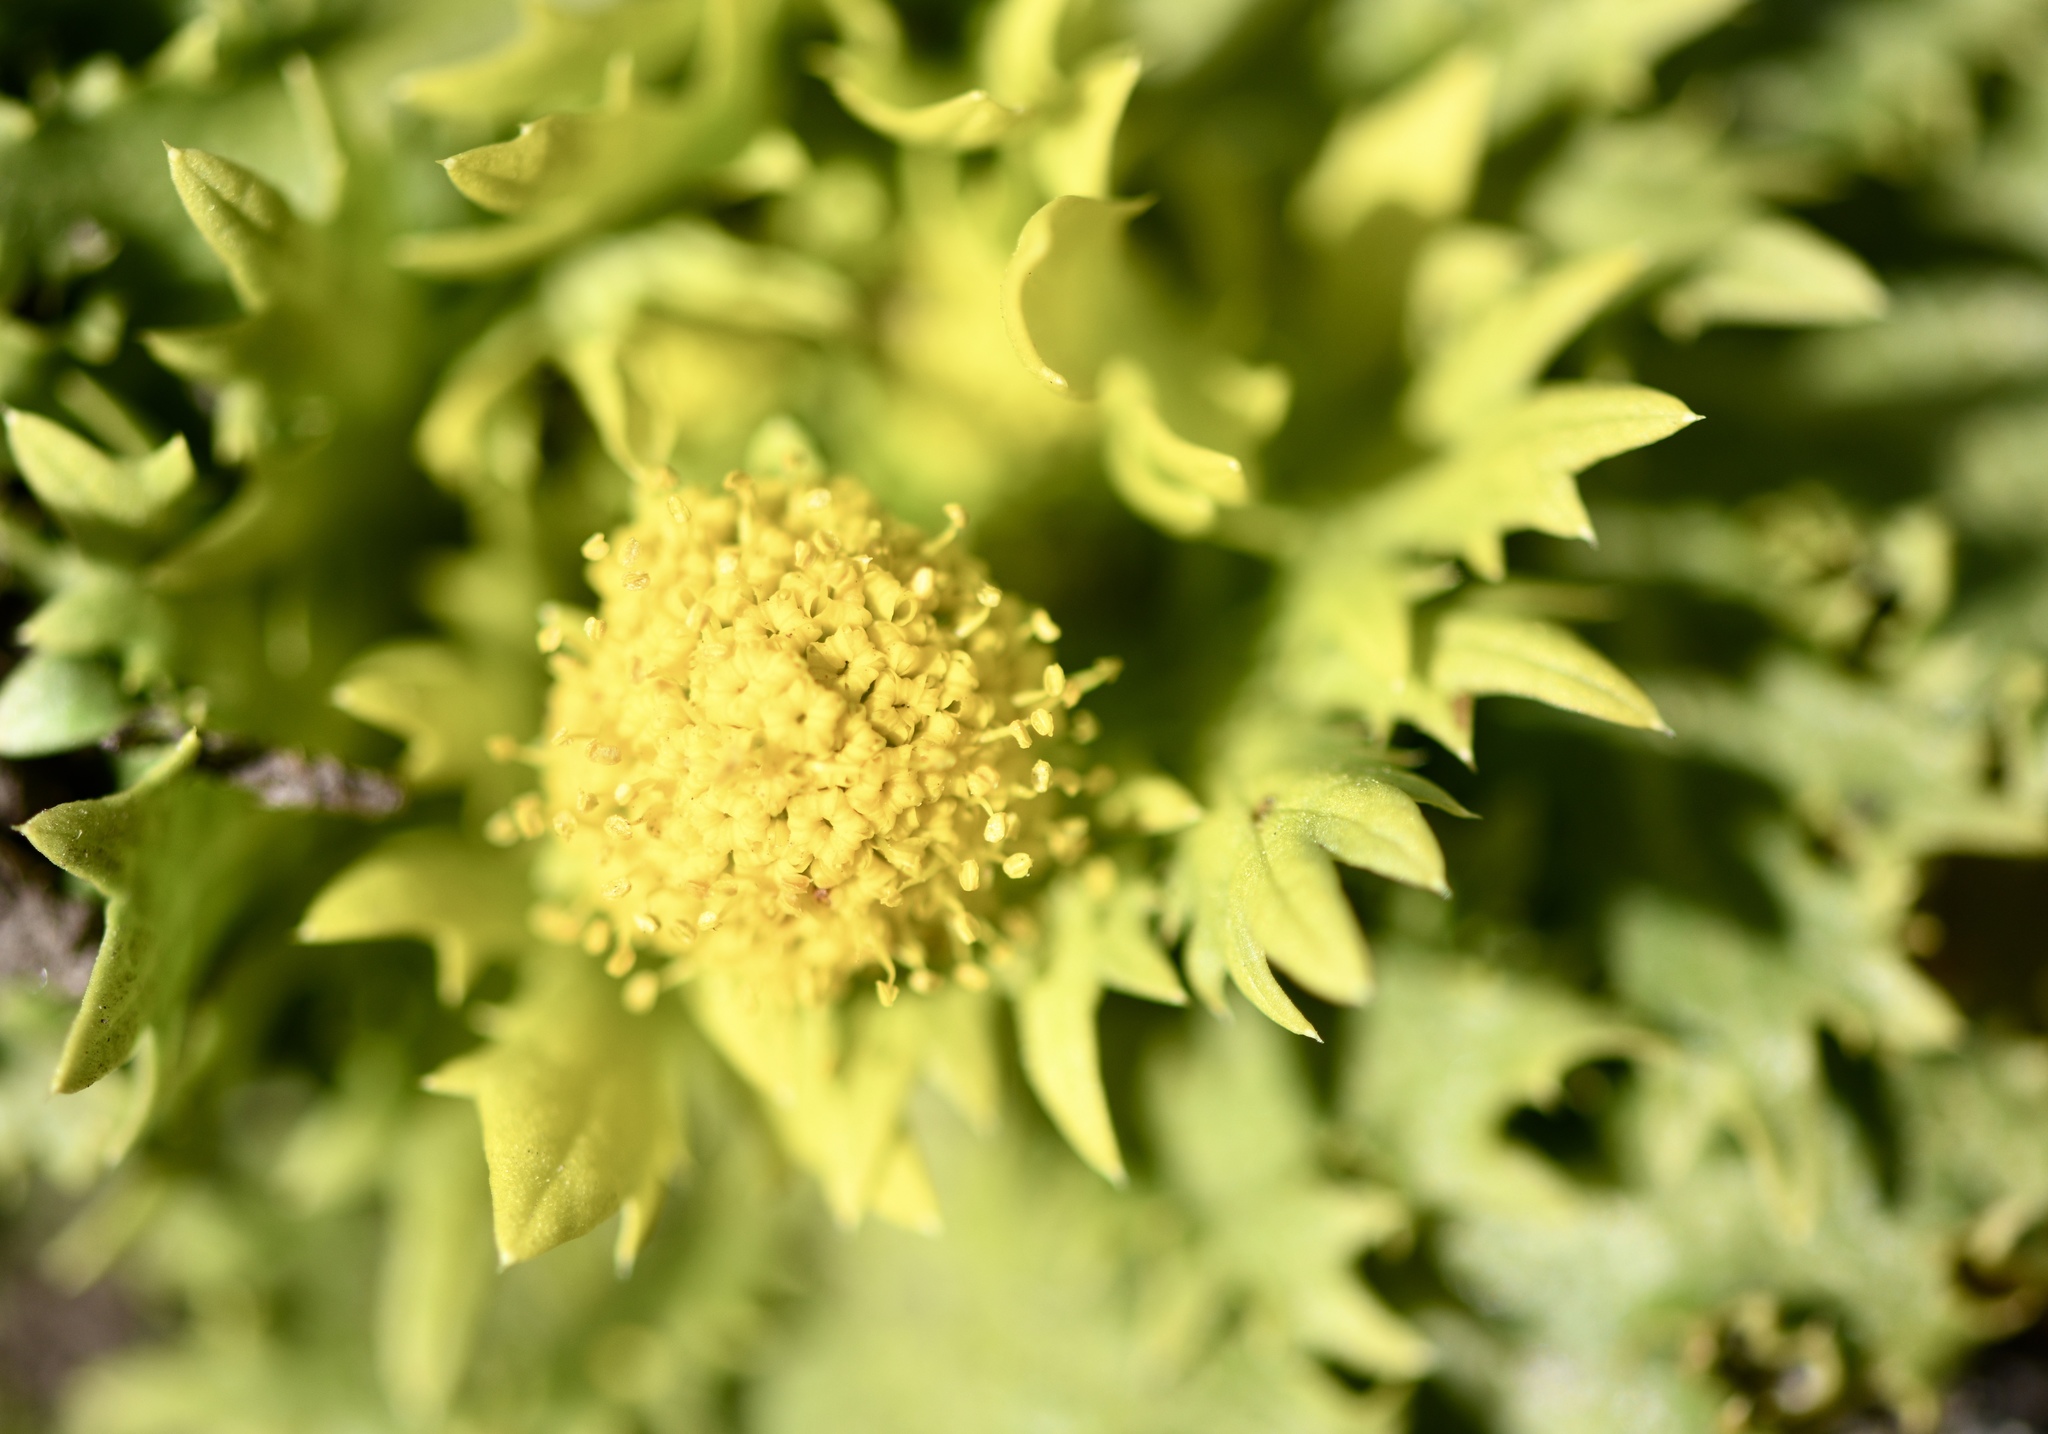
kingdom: Plantae
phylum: Tracheophyta
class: Magnoliopsida
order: Apiales
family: Apiaceae
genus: Sanicula
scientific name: Sanicula arctopoides
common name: Footsteps-of-spring
